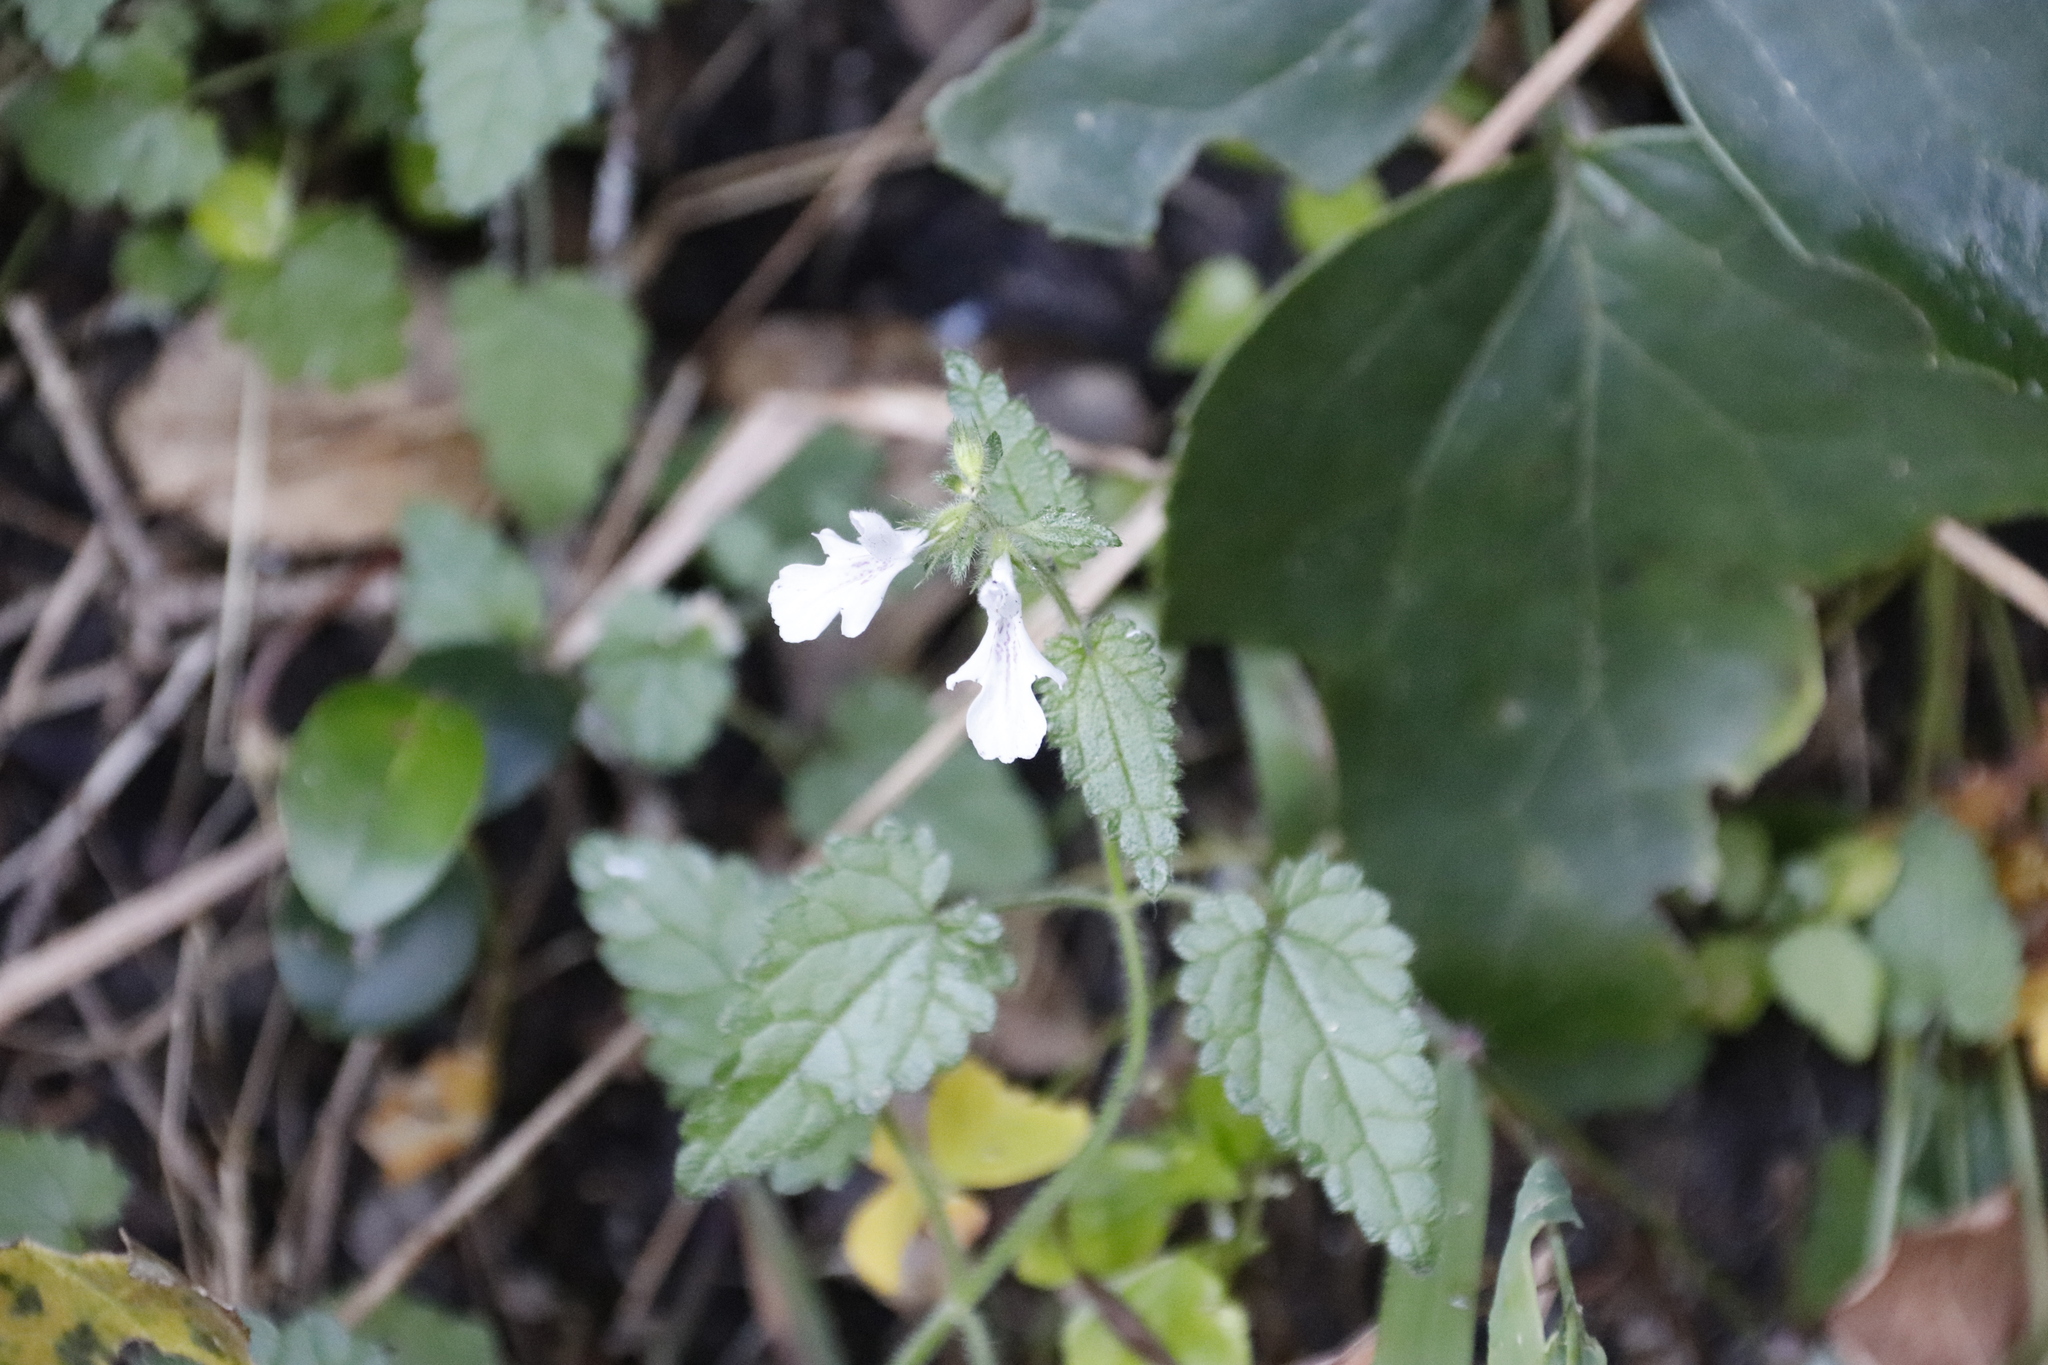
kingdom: Plantae
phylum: Tracheophyta
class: Magnoliopsida
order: Lamiales
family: Lamiaceae
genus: Stachys
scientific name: Stachys aethiopica
